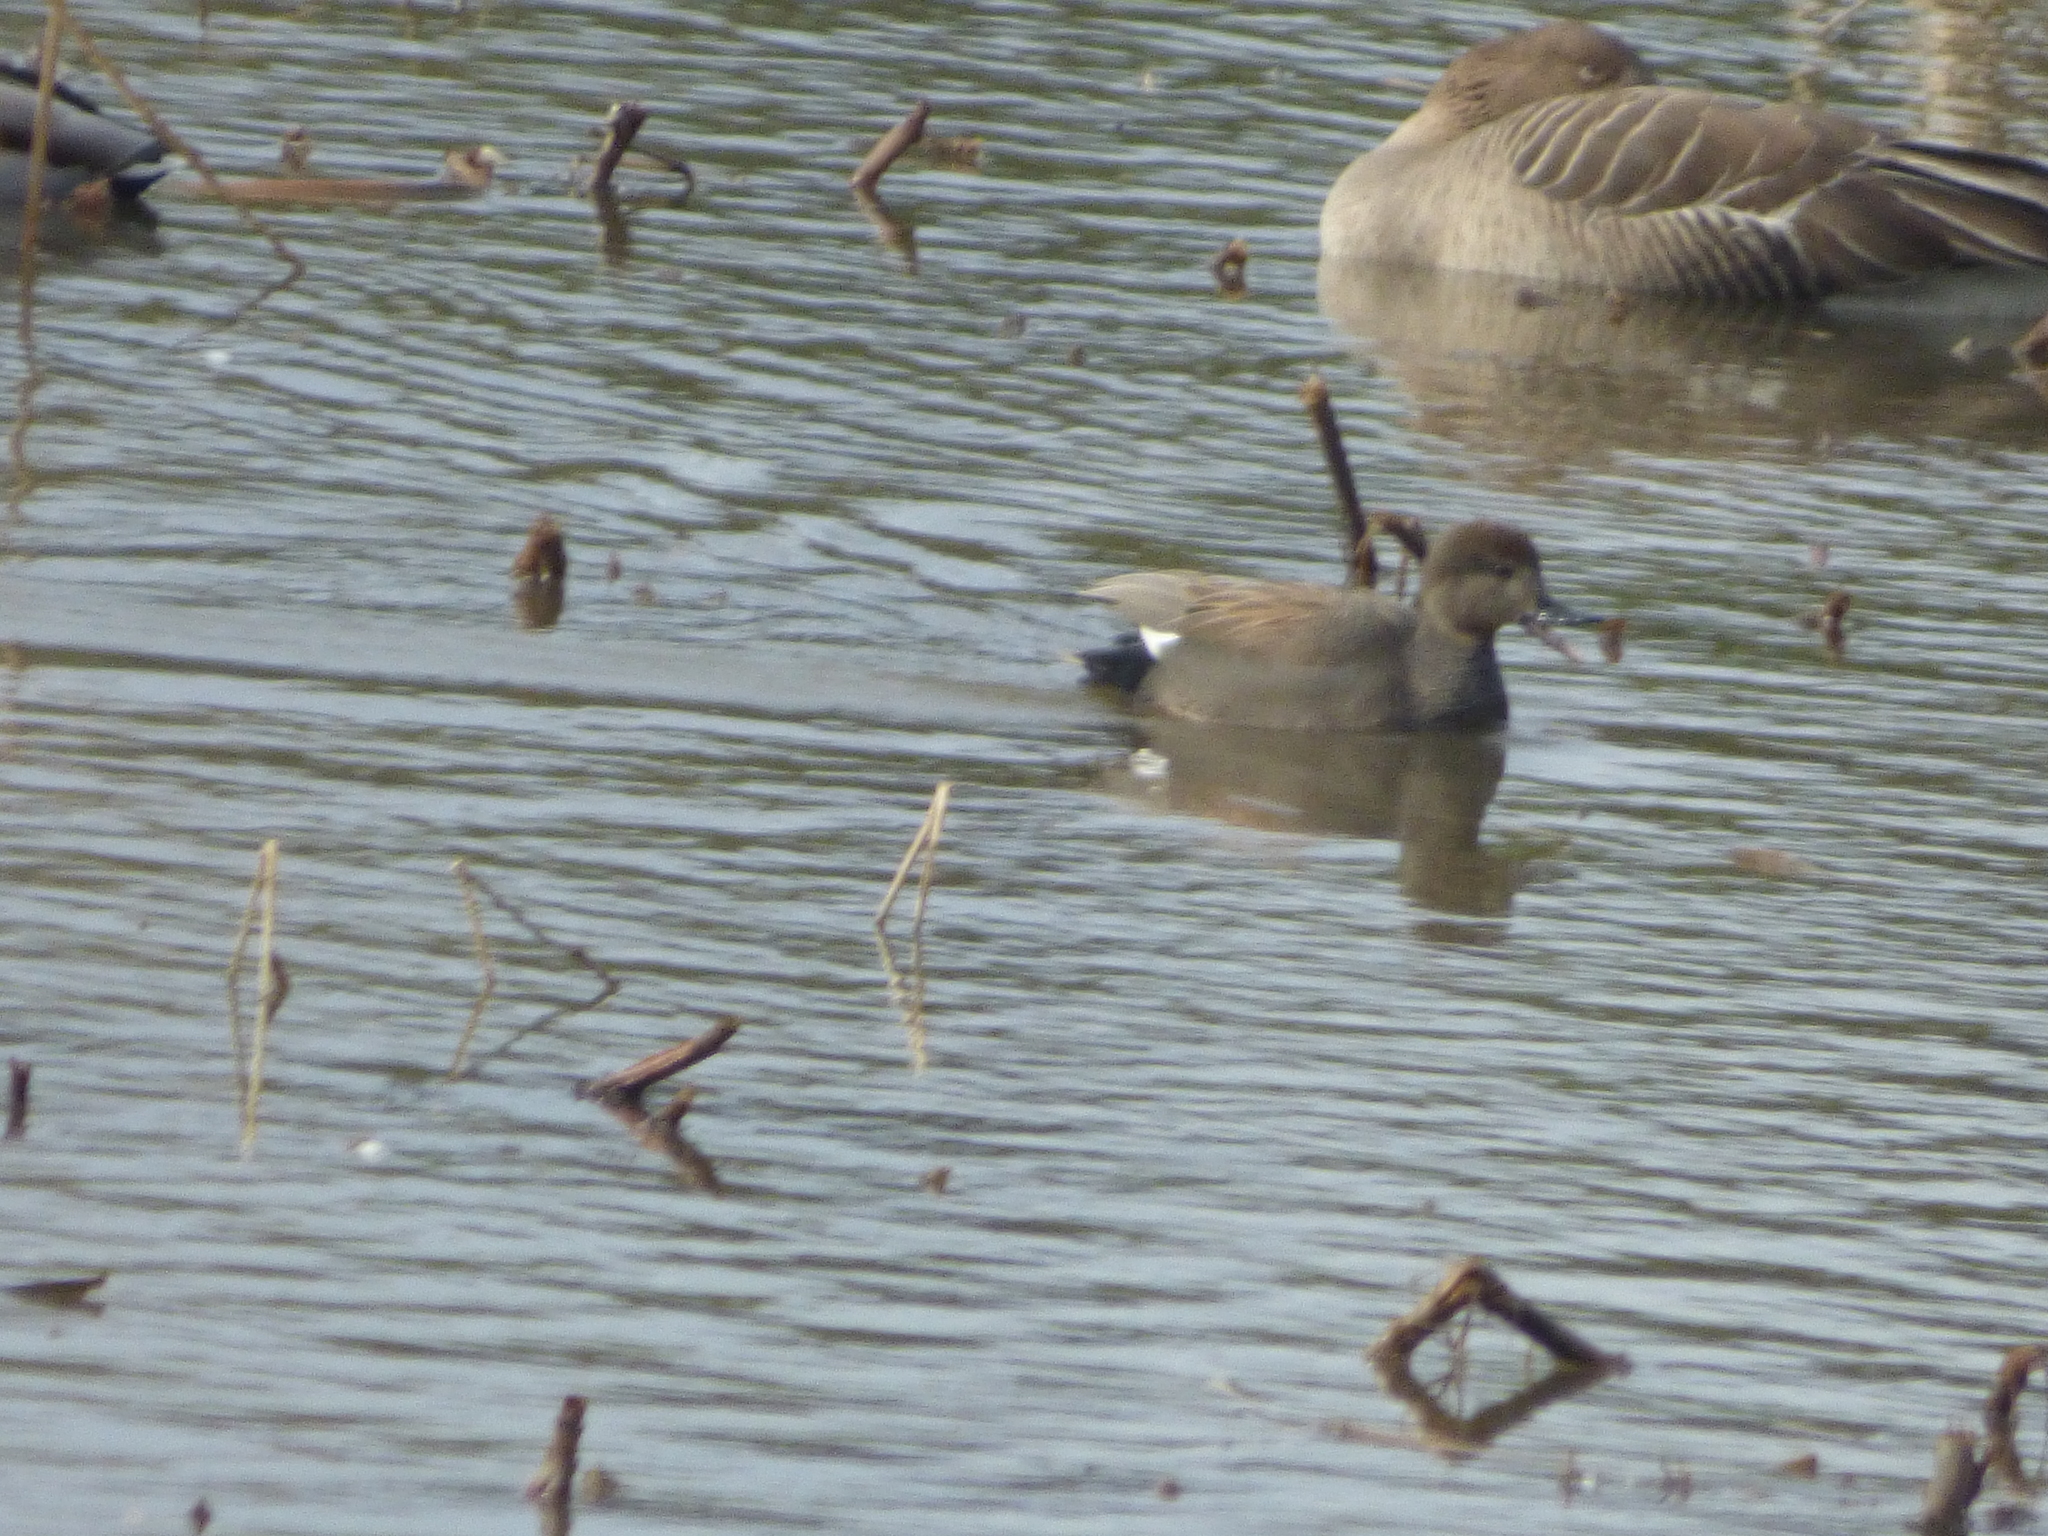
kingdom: Animalia
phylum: Chordata
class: Aves
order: Anseriformes
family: Anatidae
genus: Mareca
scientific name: Mareca strepera
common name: Gadwall
